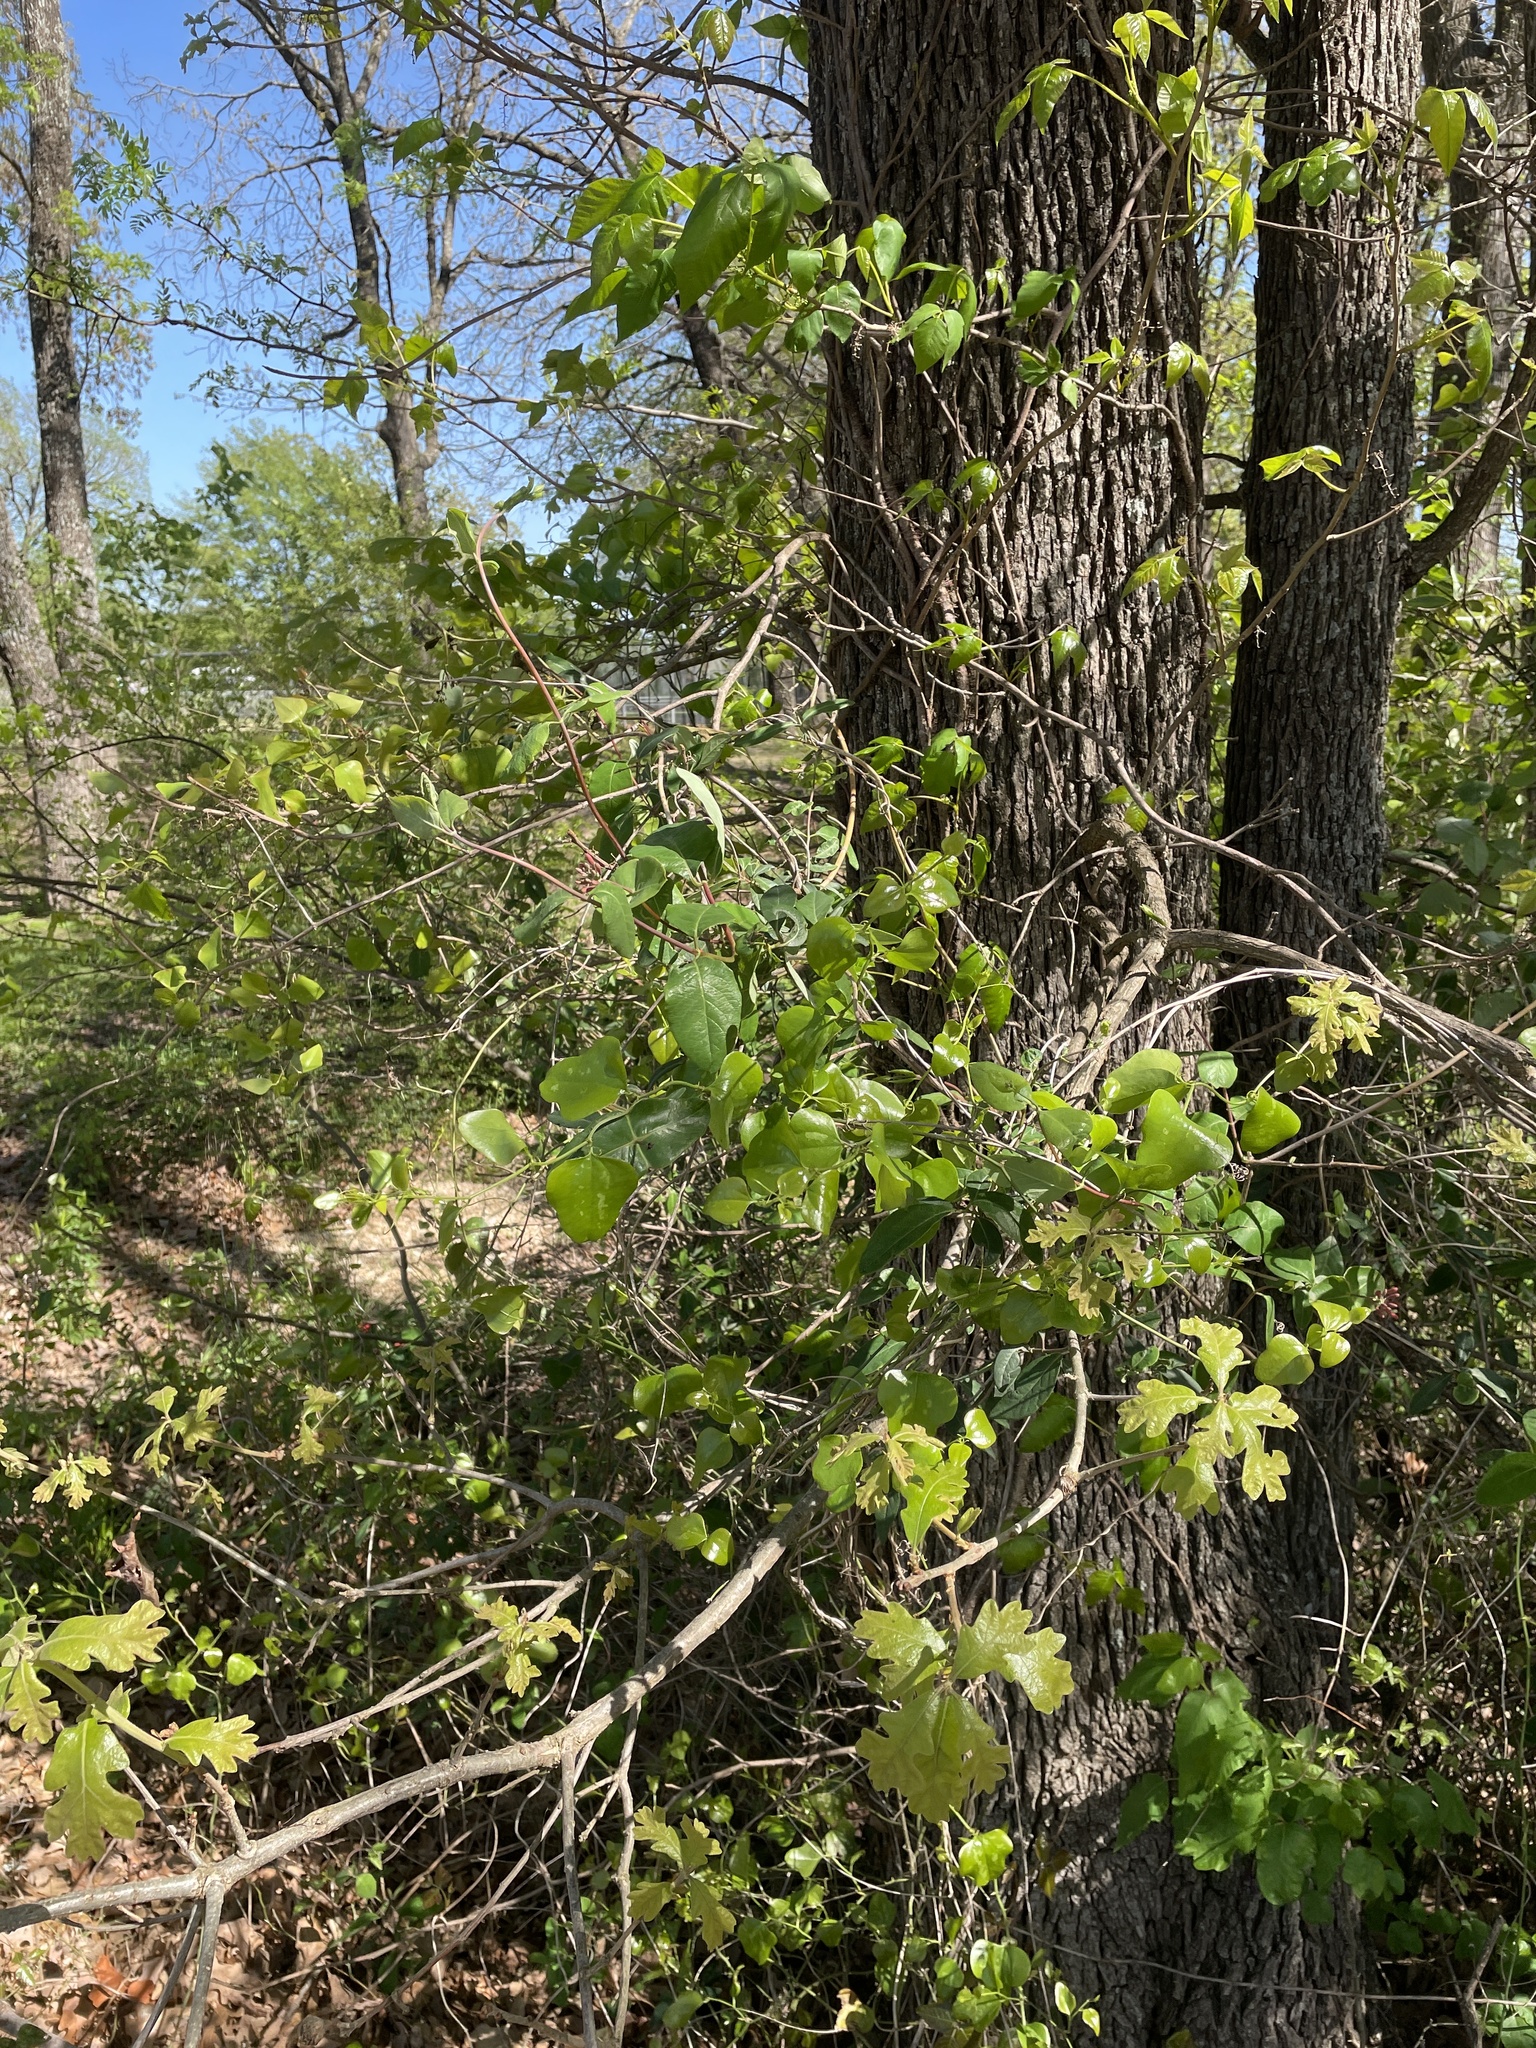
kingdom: Plantae
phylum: Tracheophyta
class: Magnoliopsida
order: Dipsacales
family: Caprifoliaceae
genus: Lonicera
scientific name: Lonicera sempervirens
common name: Coral honeysuckle
